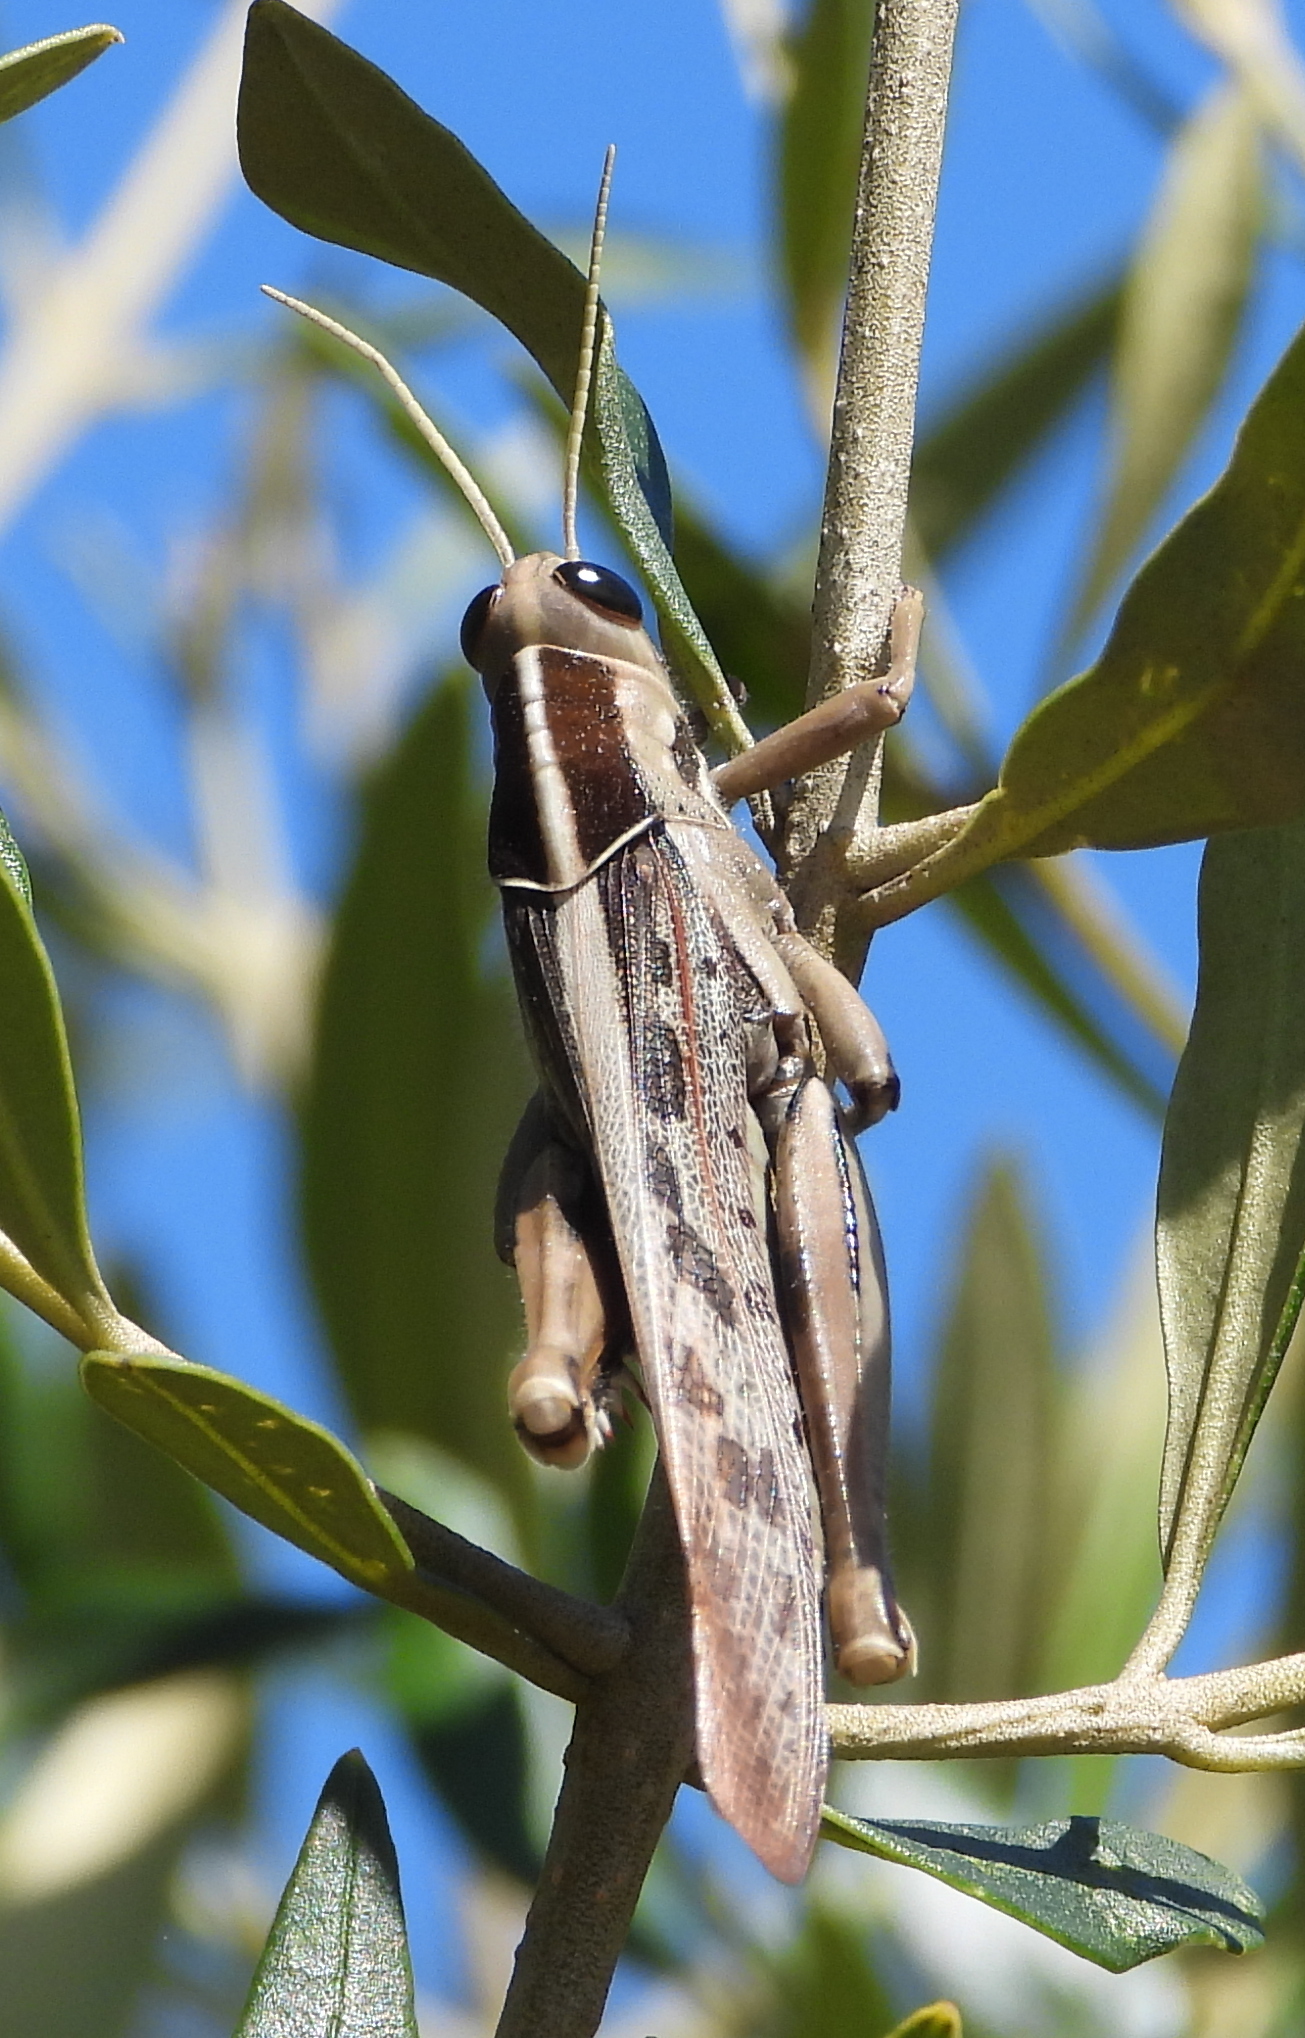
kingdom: Animalia
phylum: Arthropoda
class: Insecta
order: Orthoptera
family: Acrididae
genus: Acanthacris
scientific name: Acanthacris ruficornis
